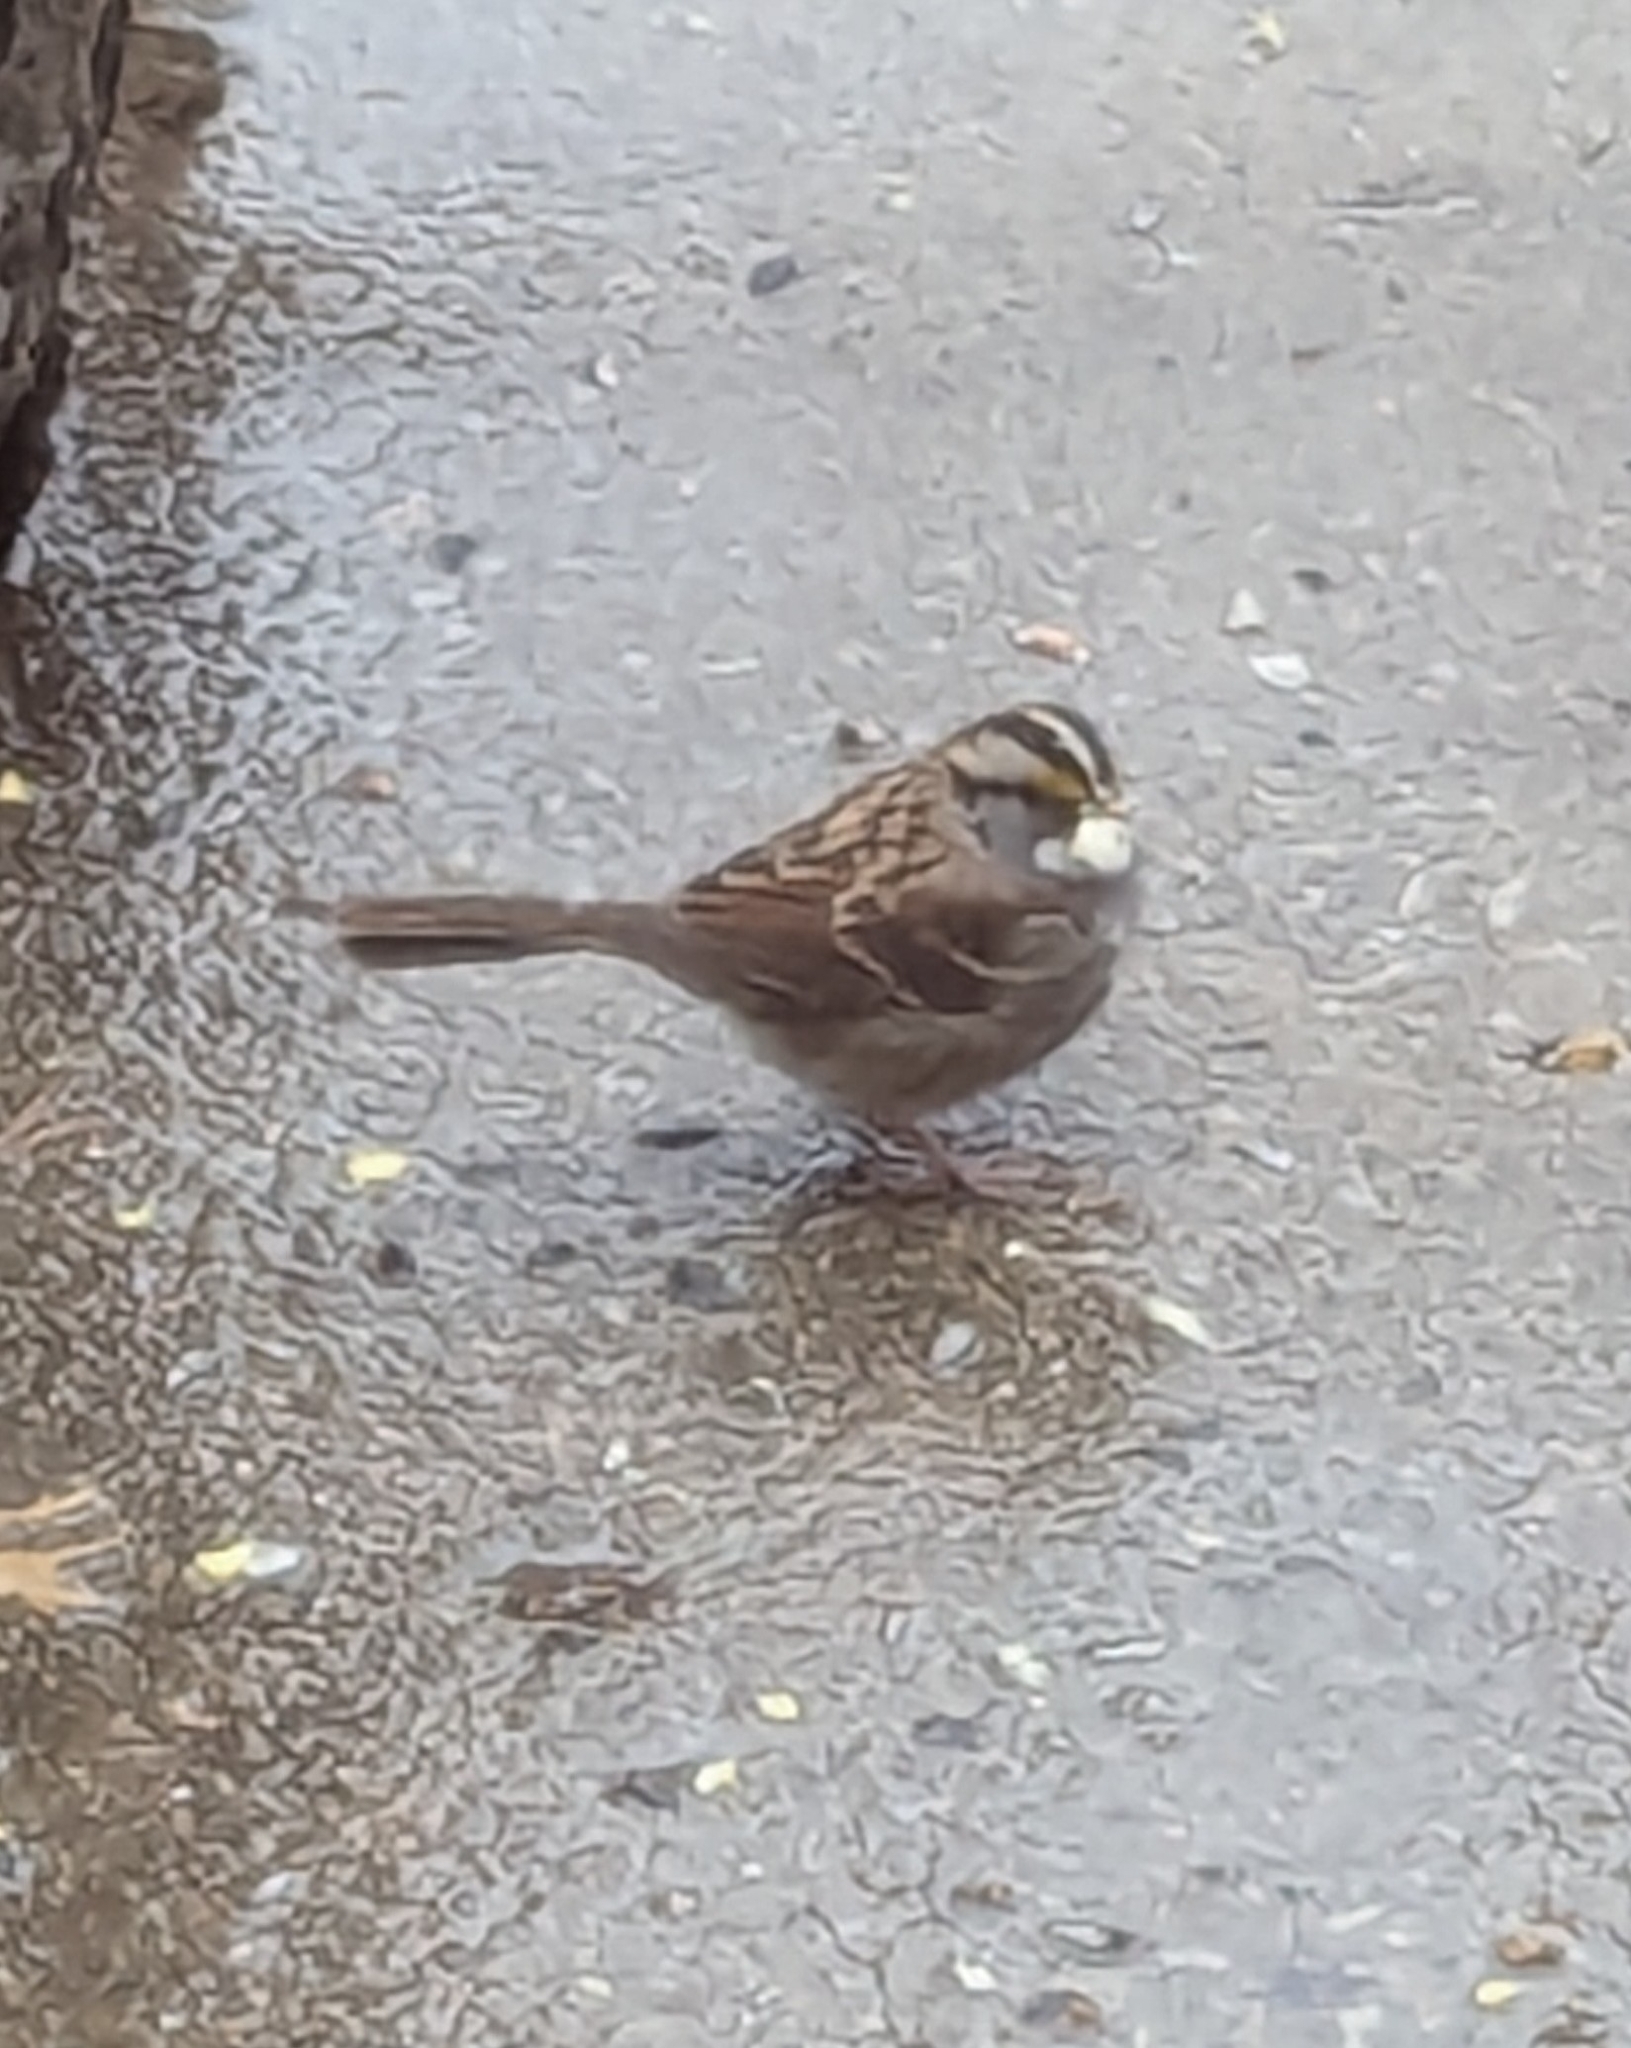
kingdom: Animalia
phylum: Chordata
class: Aves
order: Passeriformes
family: Passerellidae
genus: Zonotrichia
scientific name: Zonotrichia albicollis
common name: White-throated sparrow
